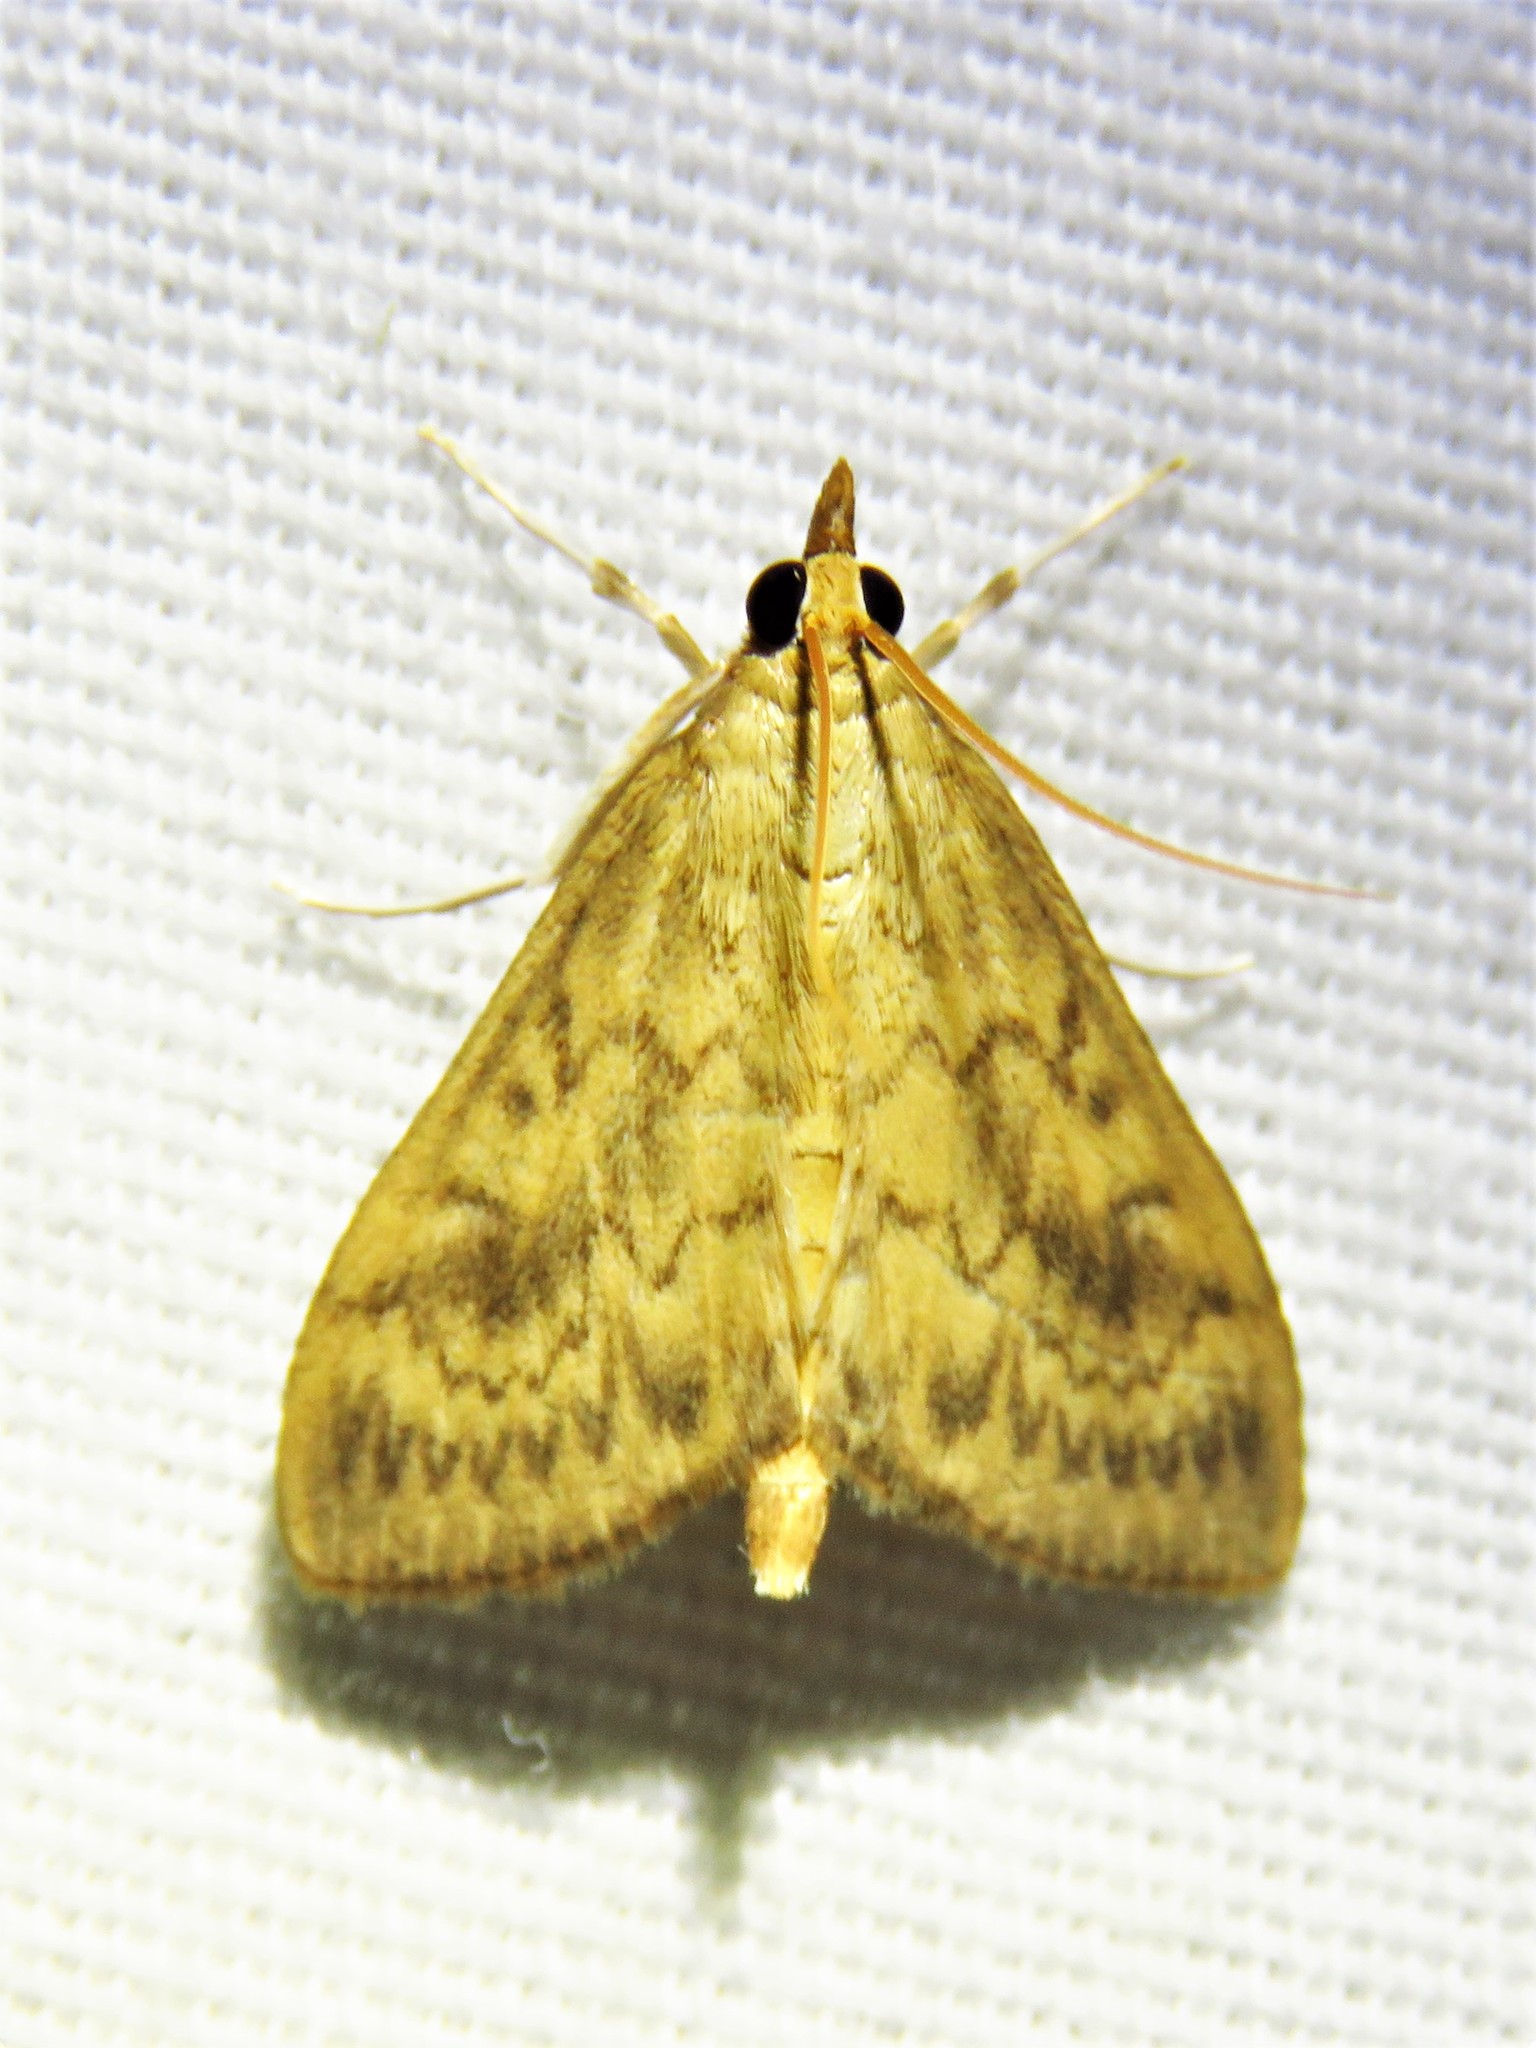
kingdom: Animalia
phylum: Arthropoda
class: Insecta
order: Lepidoptera
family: Crambidae
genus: Ostrinia
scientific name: Ostrinia penitalis
